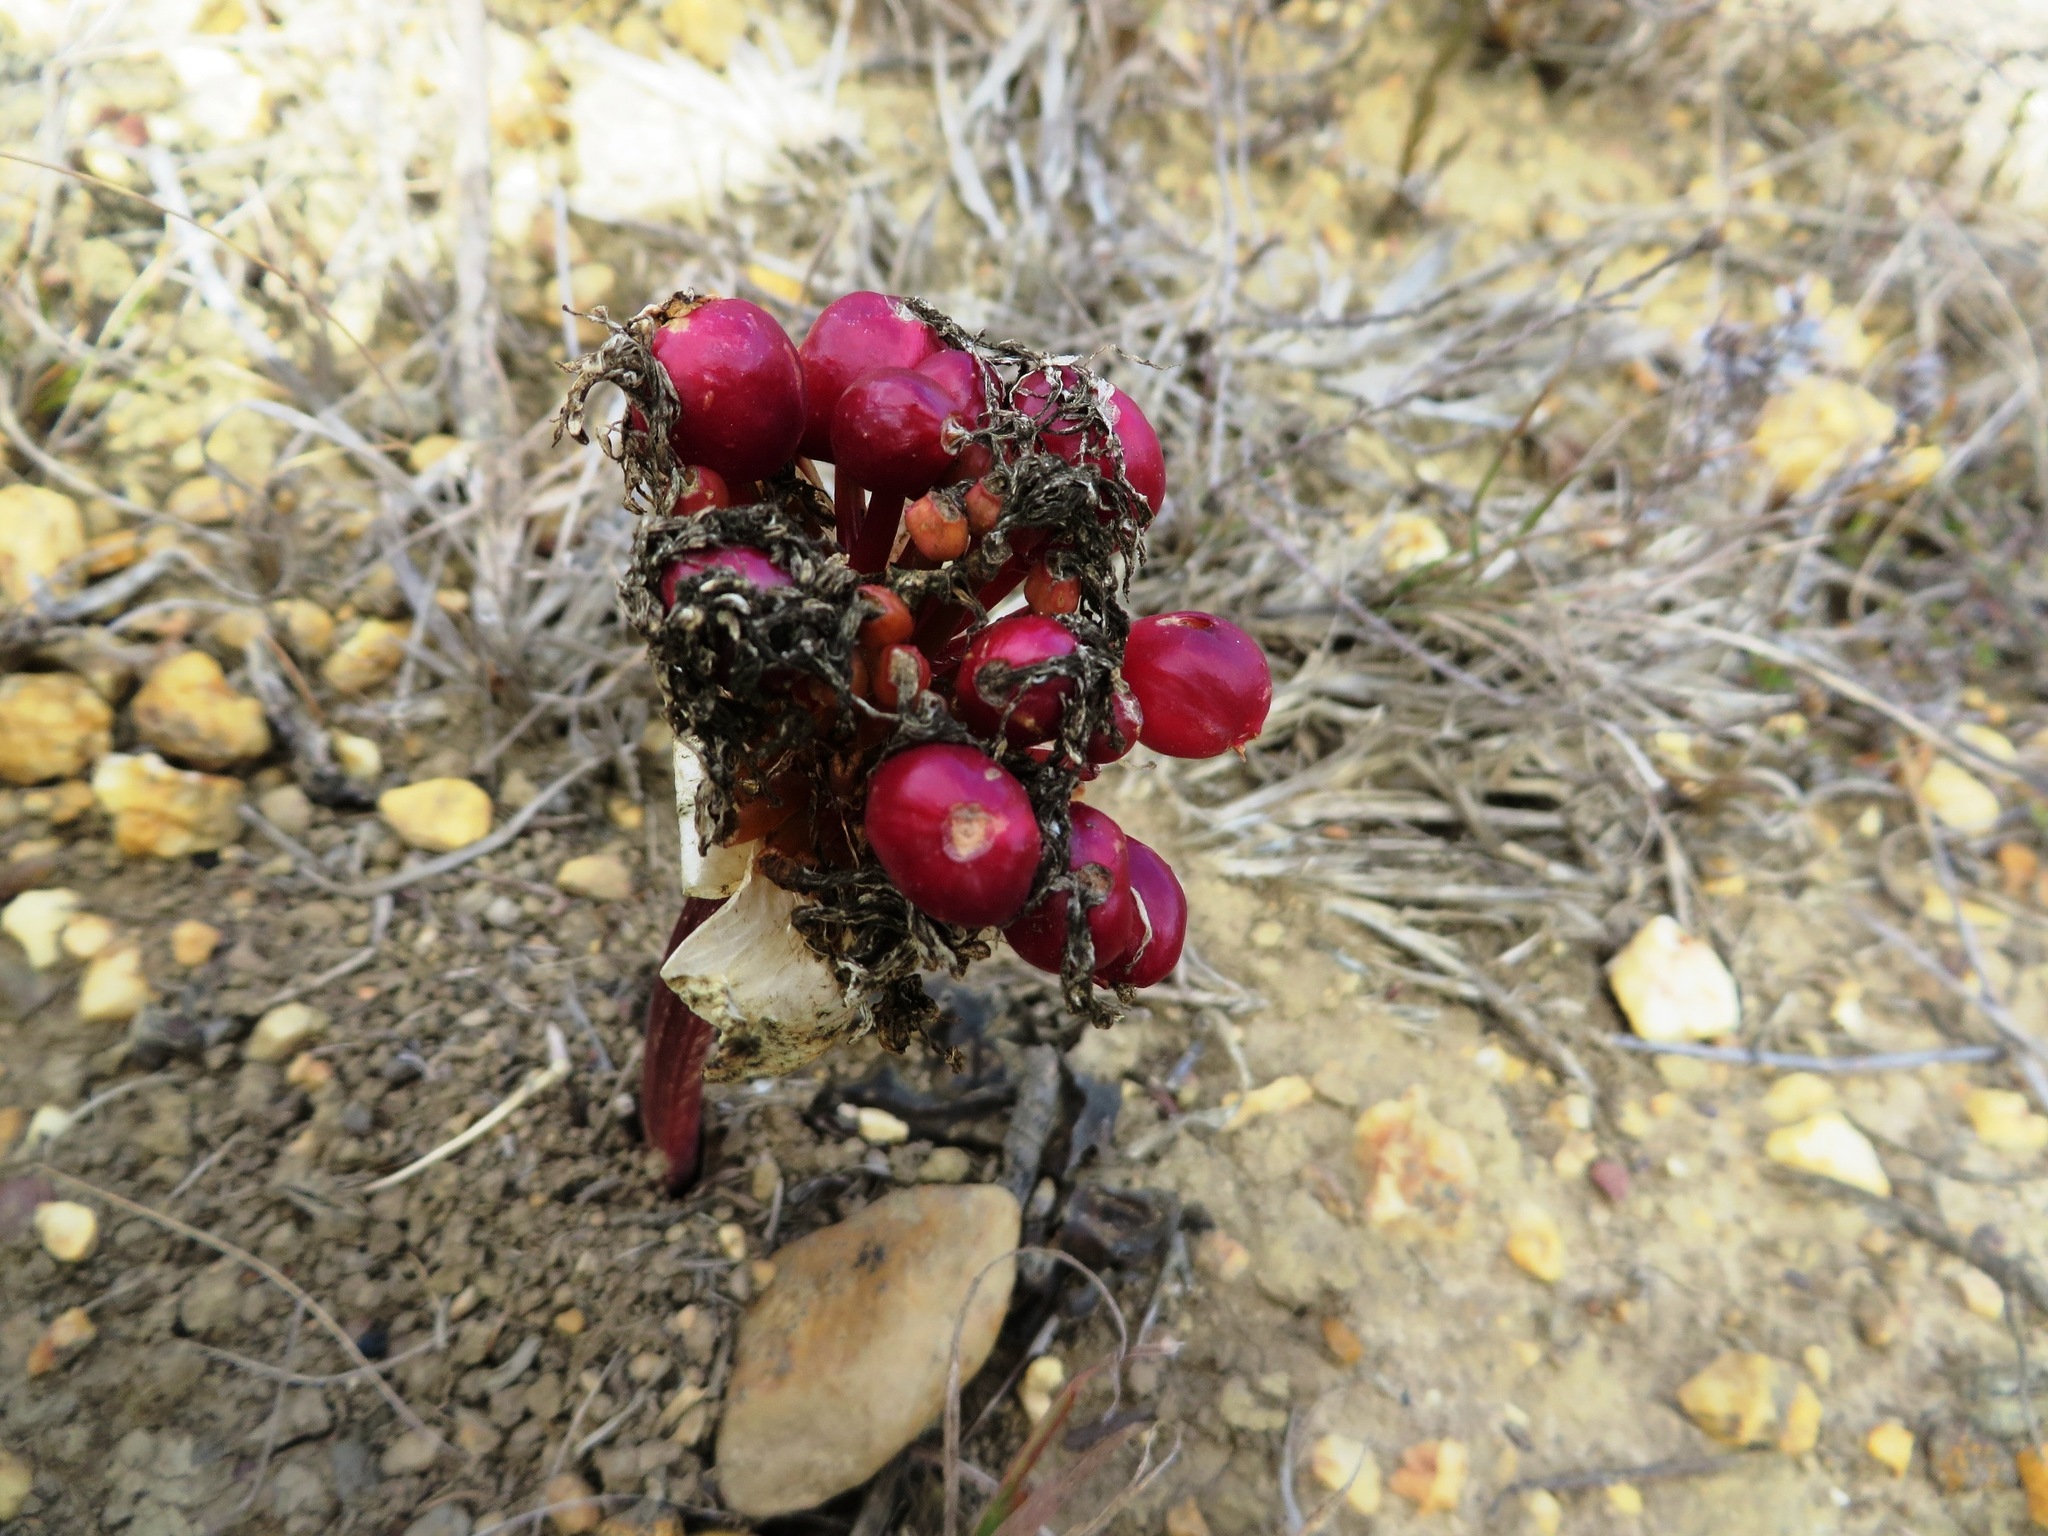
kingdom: Plantae
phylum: Tracheophyta
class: Liliopsida
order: Asparagales
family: Amaryllidaceae
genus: Haemanthus
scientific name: Haemanthus sanguineus
